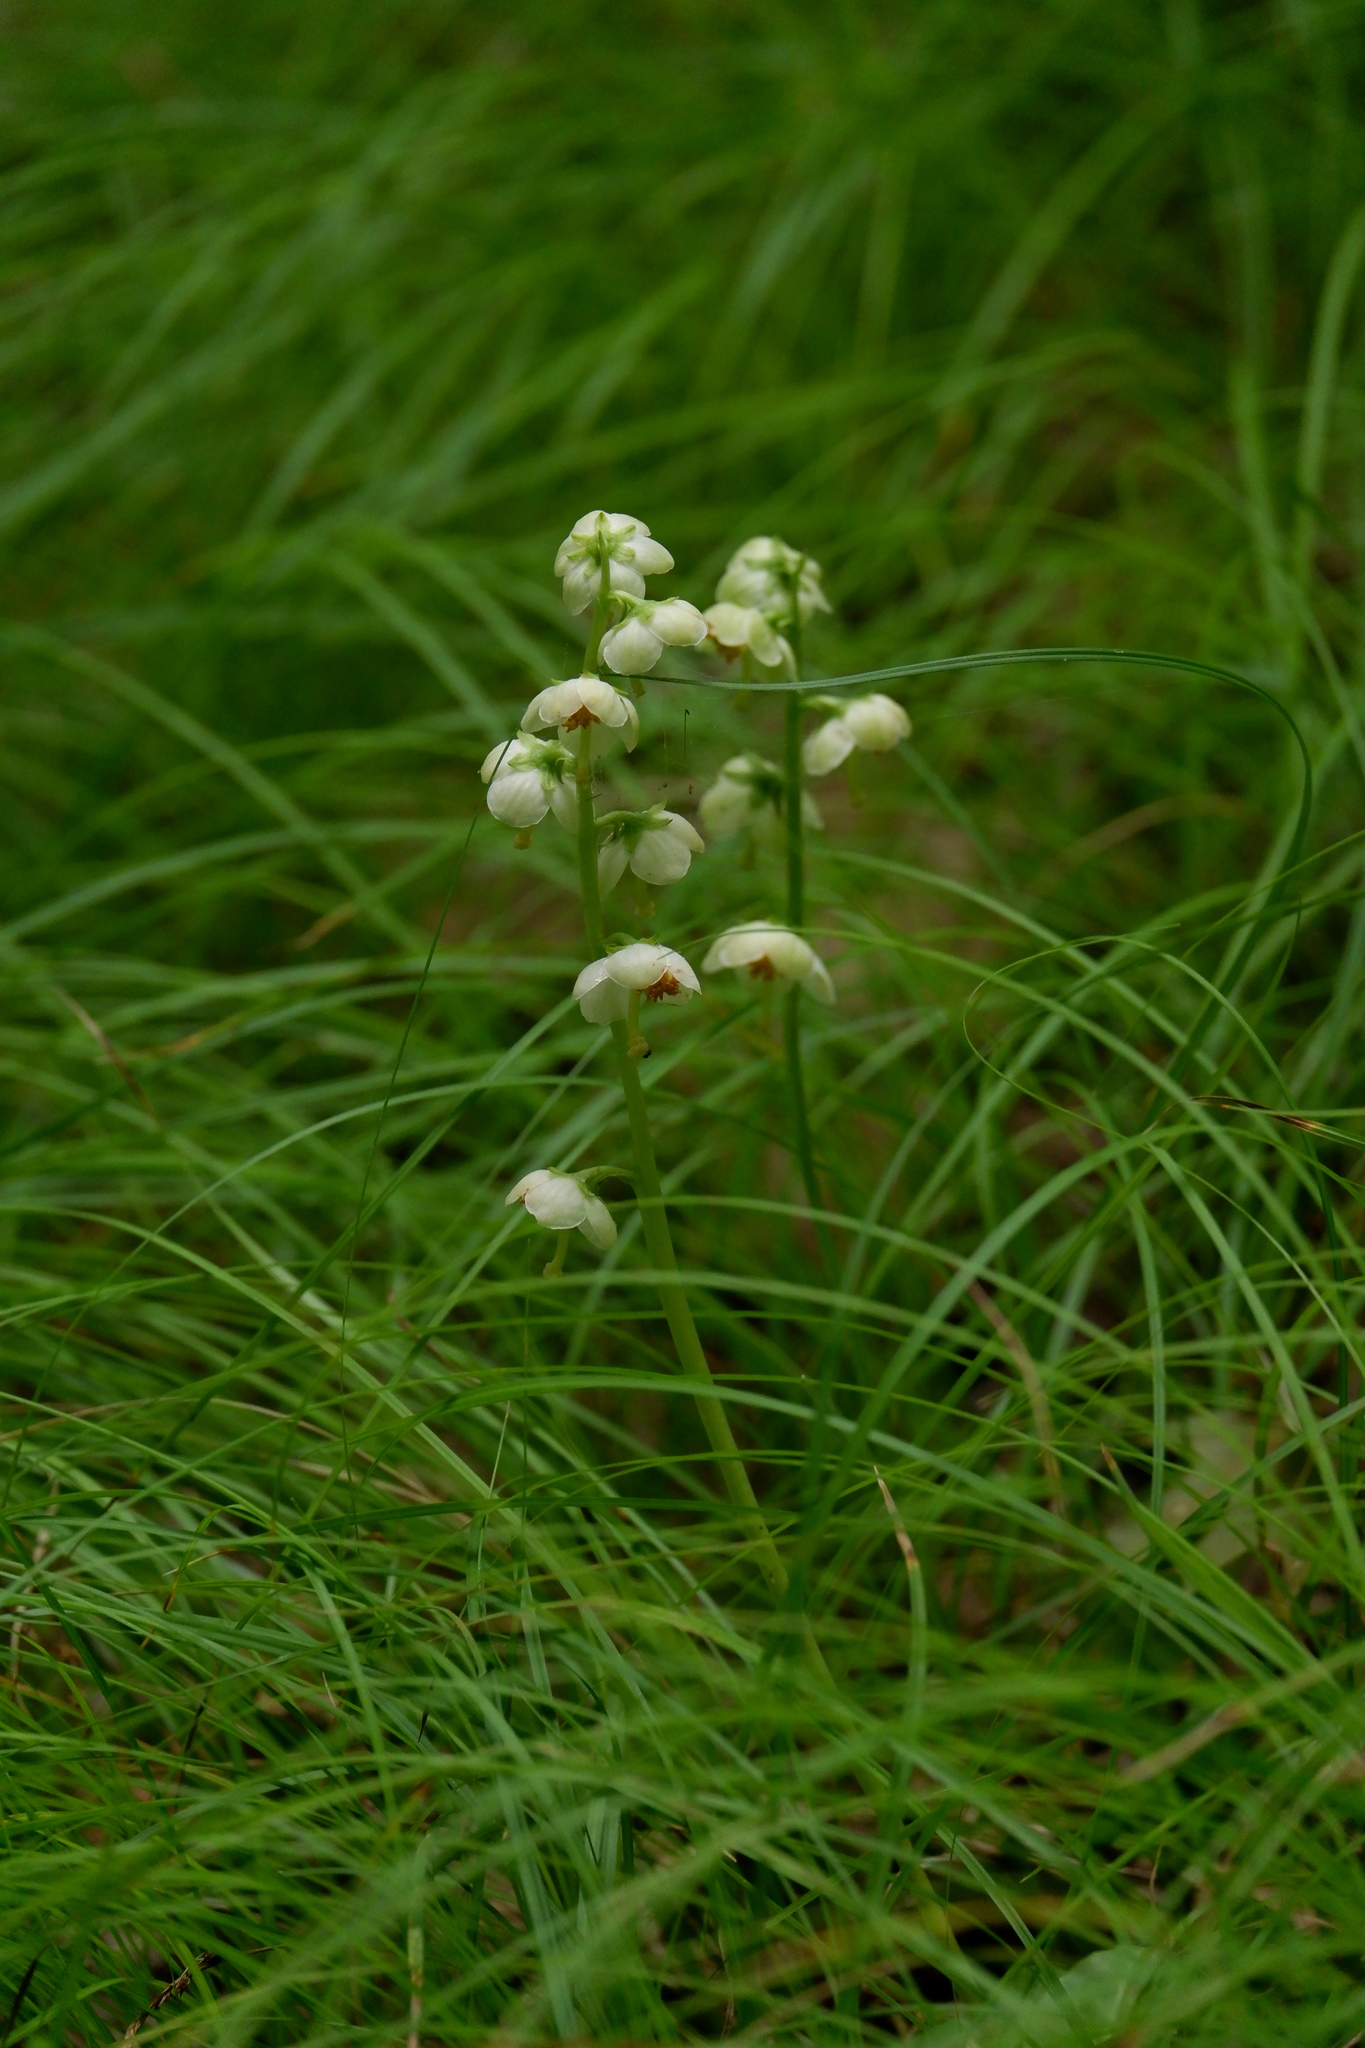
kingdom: Plantae
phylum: Tracheophyta
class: Magnoliopsida
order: Ericales
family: Ericaceae
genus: Pyrola
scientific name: Pyrola americana
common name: American wintergreen
